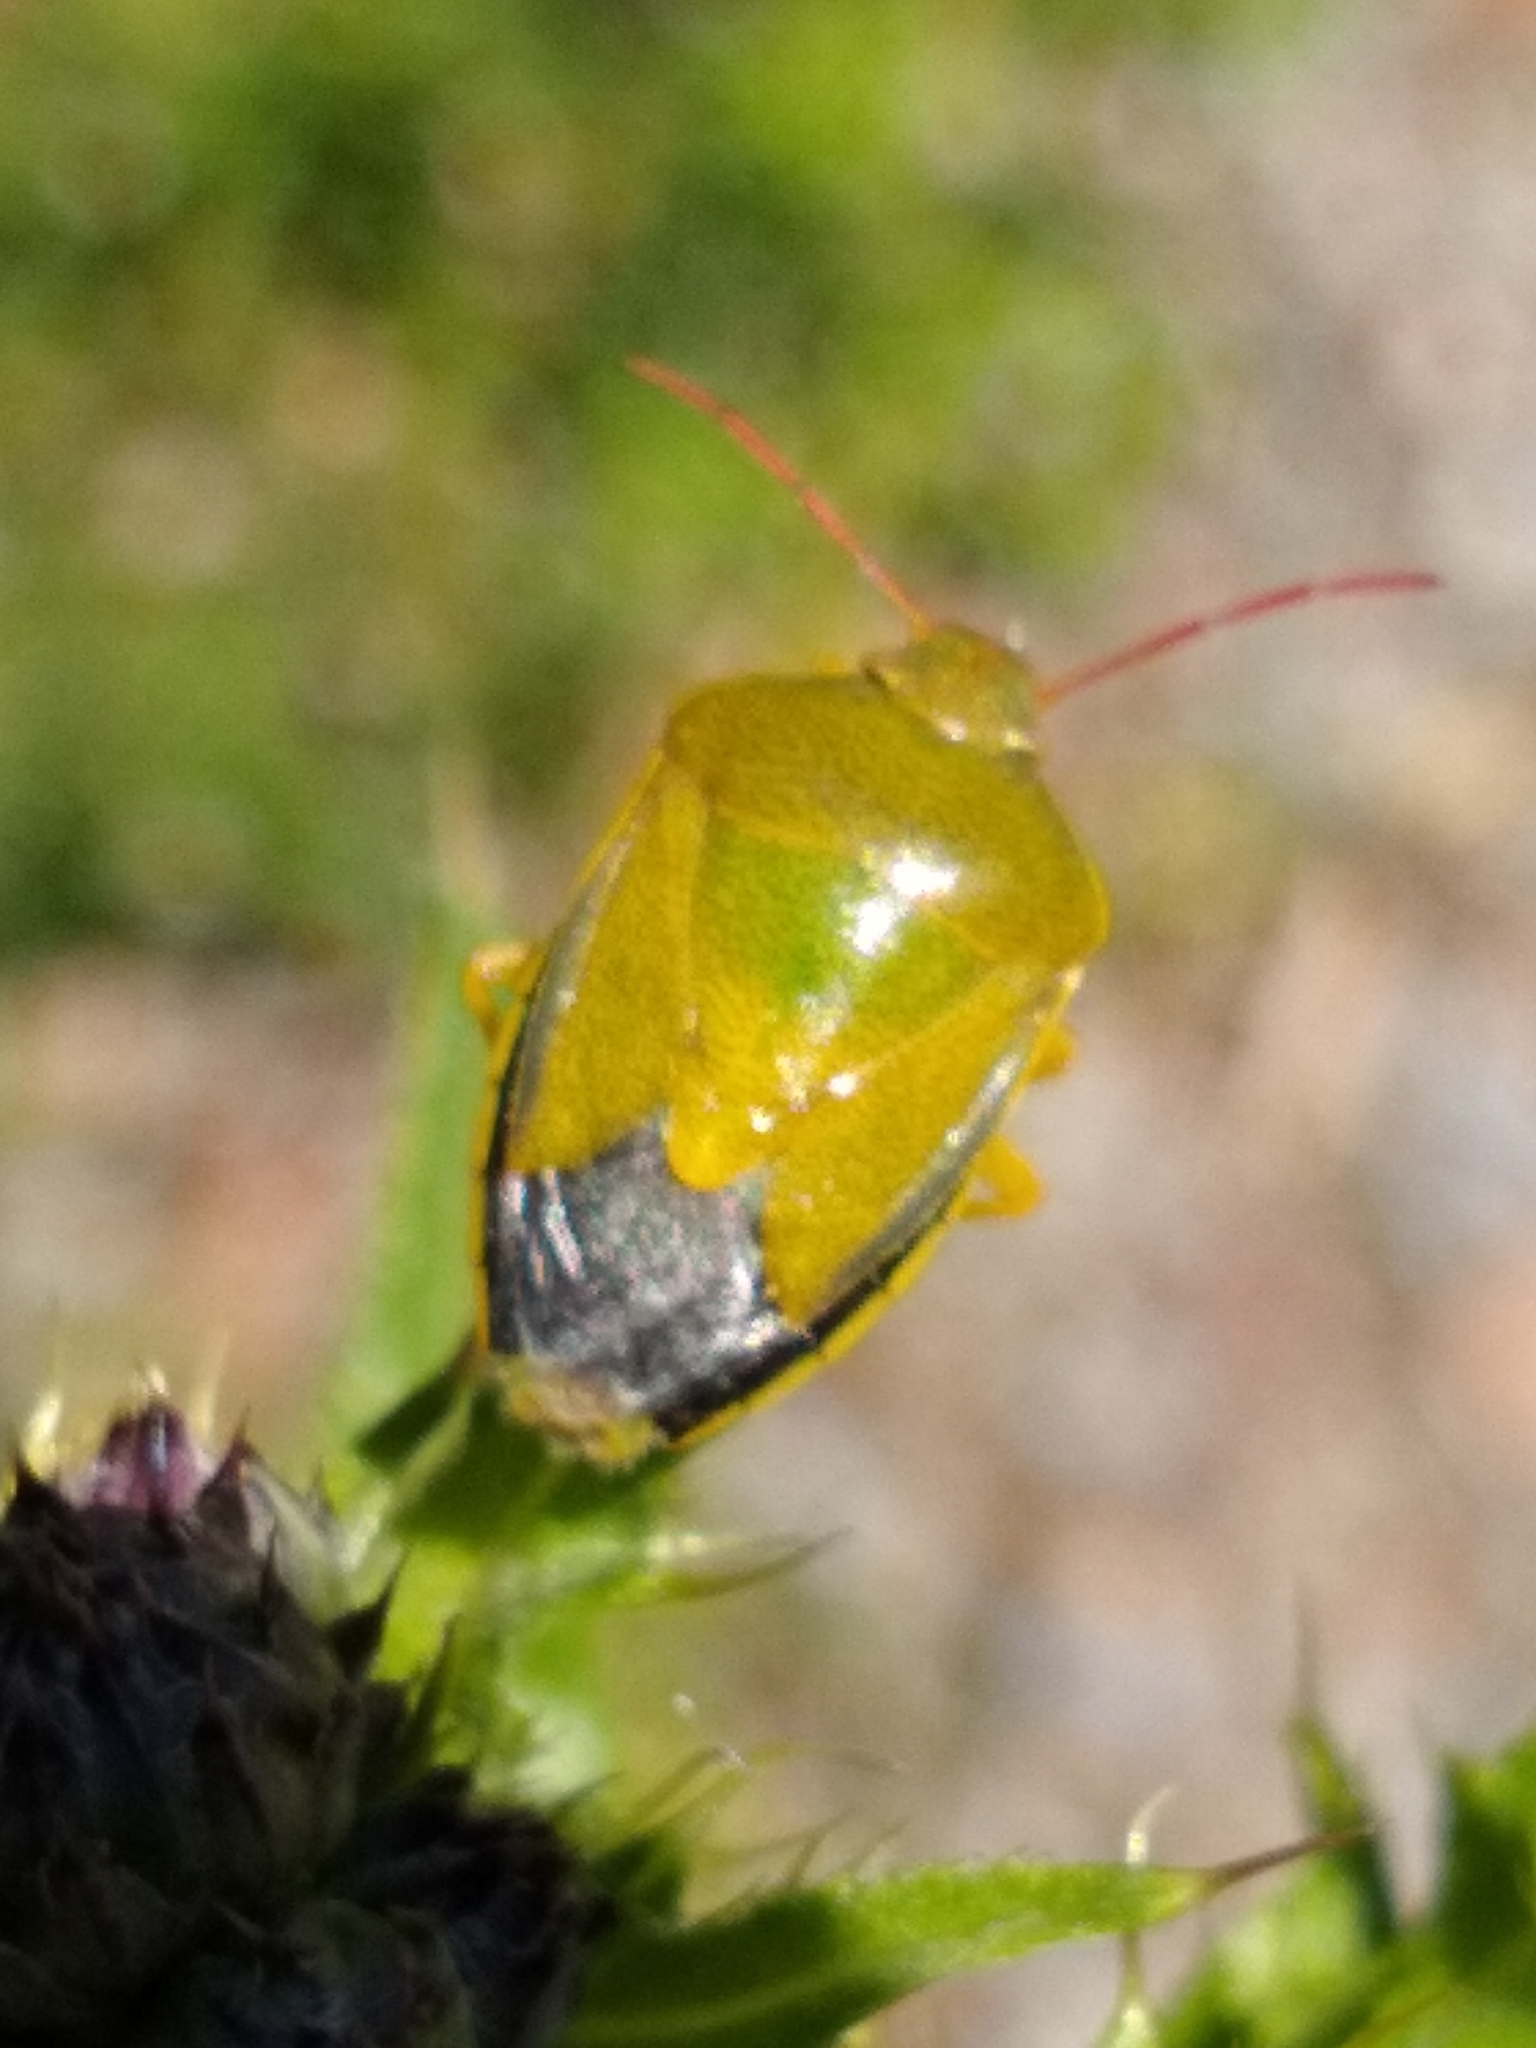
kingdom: Animalia
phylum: Arthropoda
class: Insecta
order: Hemiptera
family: Pentatomidae
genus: Piezodorus
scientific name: Piezodorus lituratus
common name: Stink bug
